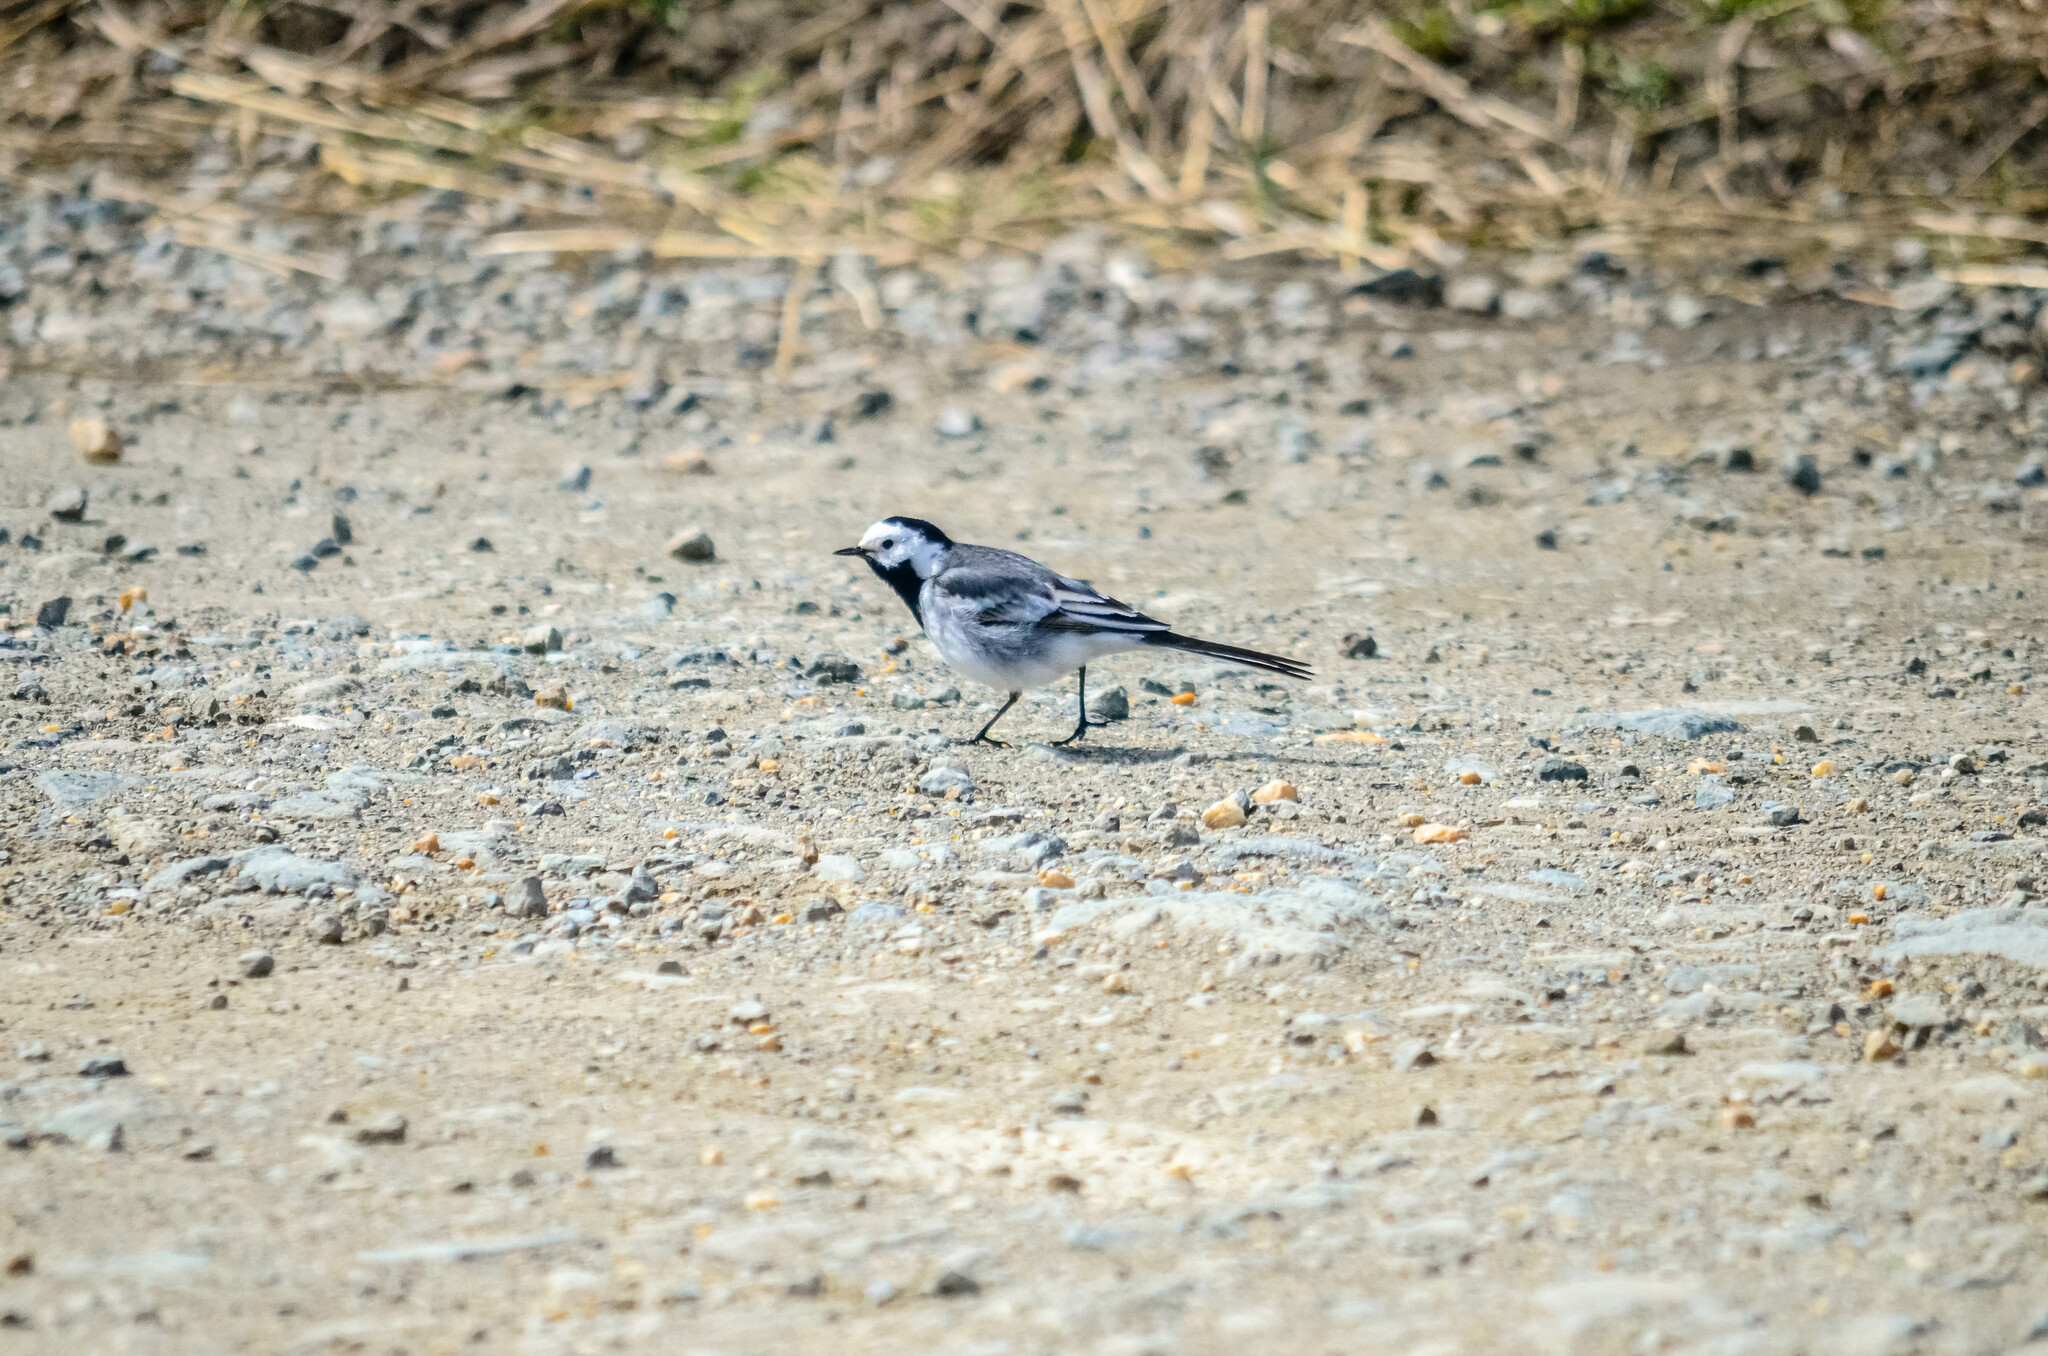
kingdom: Animalia
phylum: Chordata
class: Aves
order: Passeriformes
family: Motacillidae
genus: Motacilla
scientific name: Motacilla alba
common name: White wagtail
